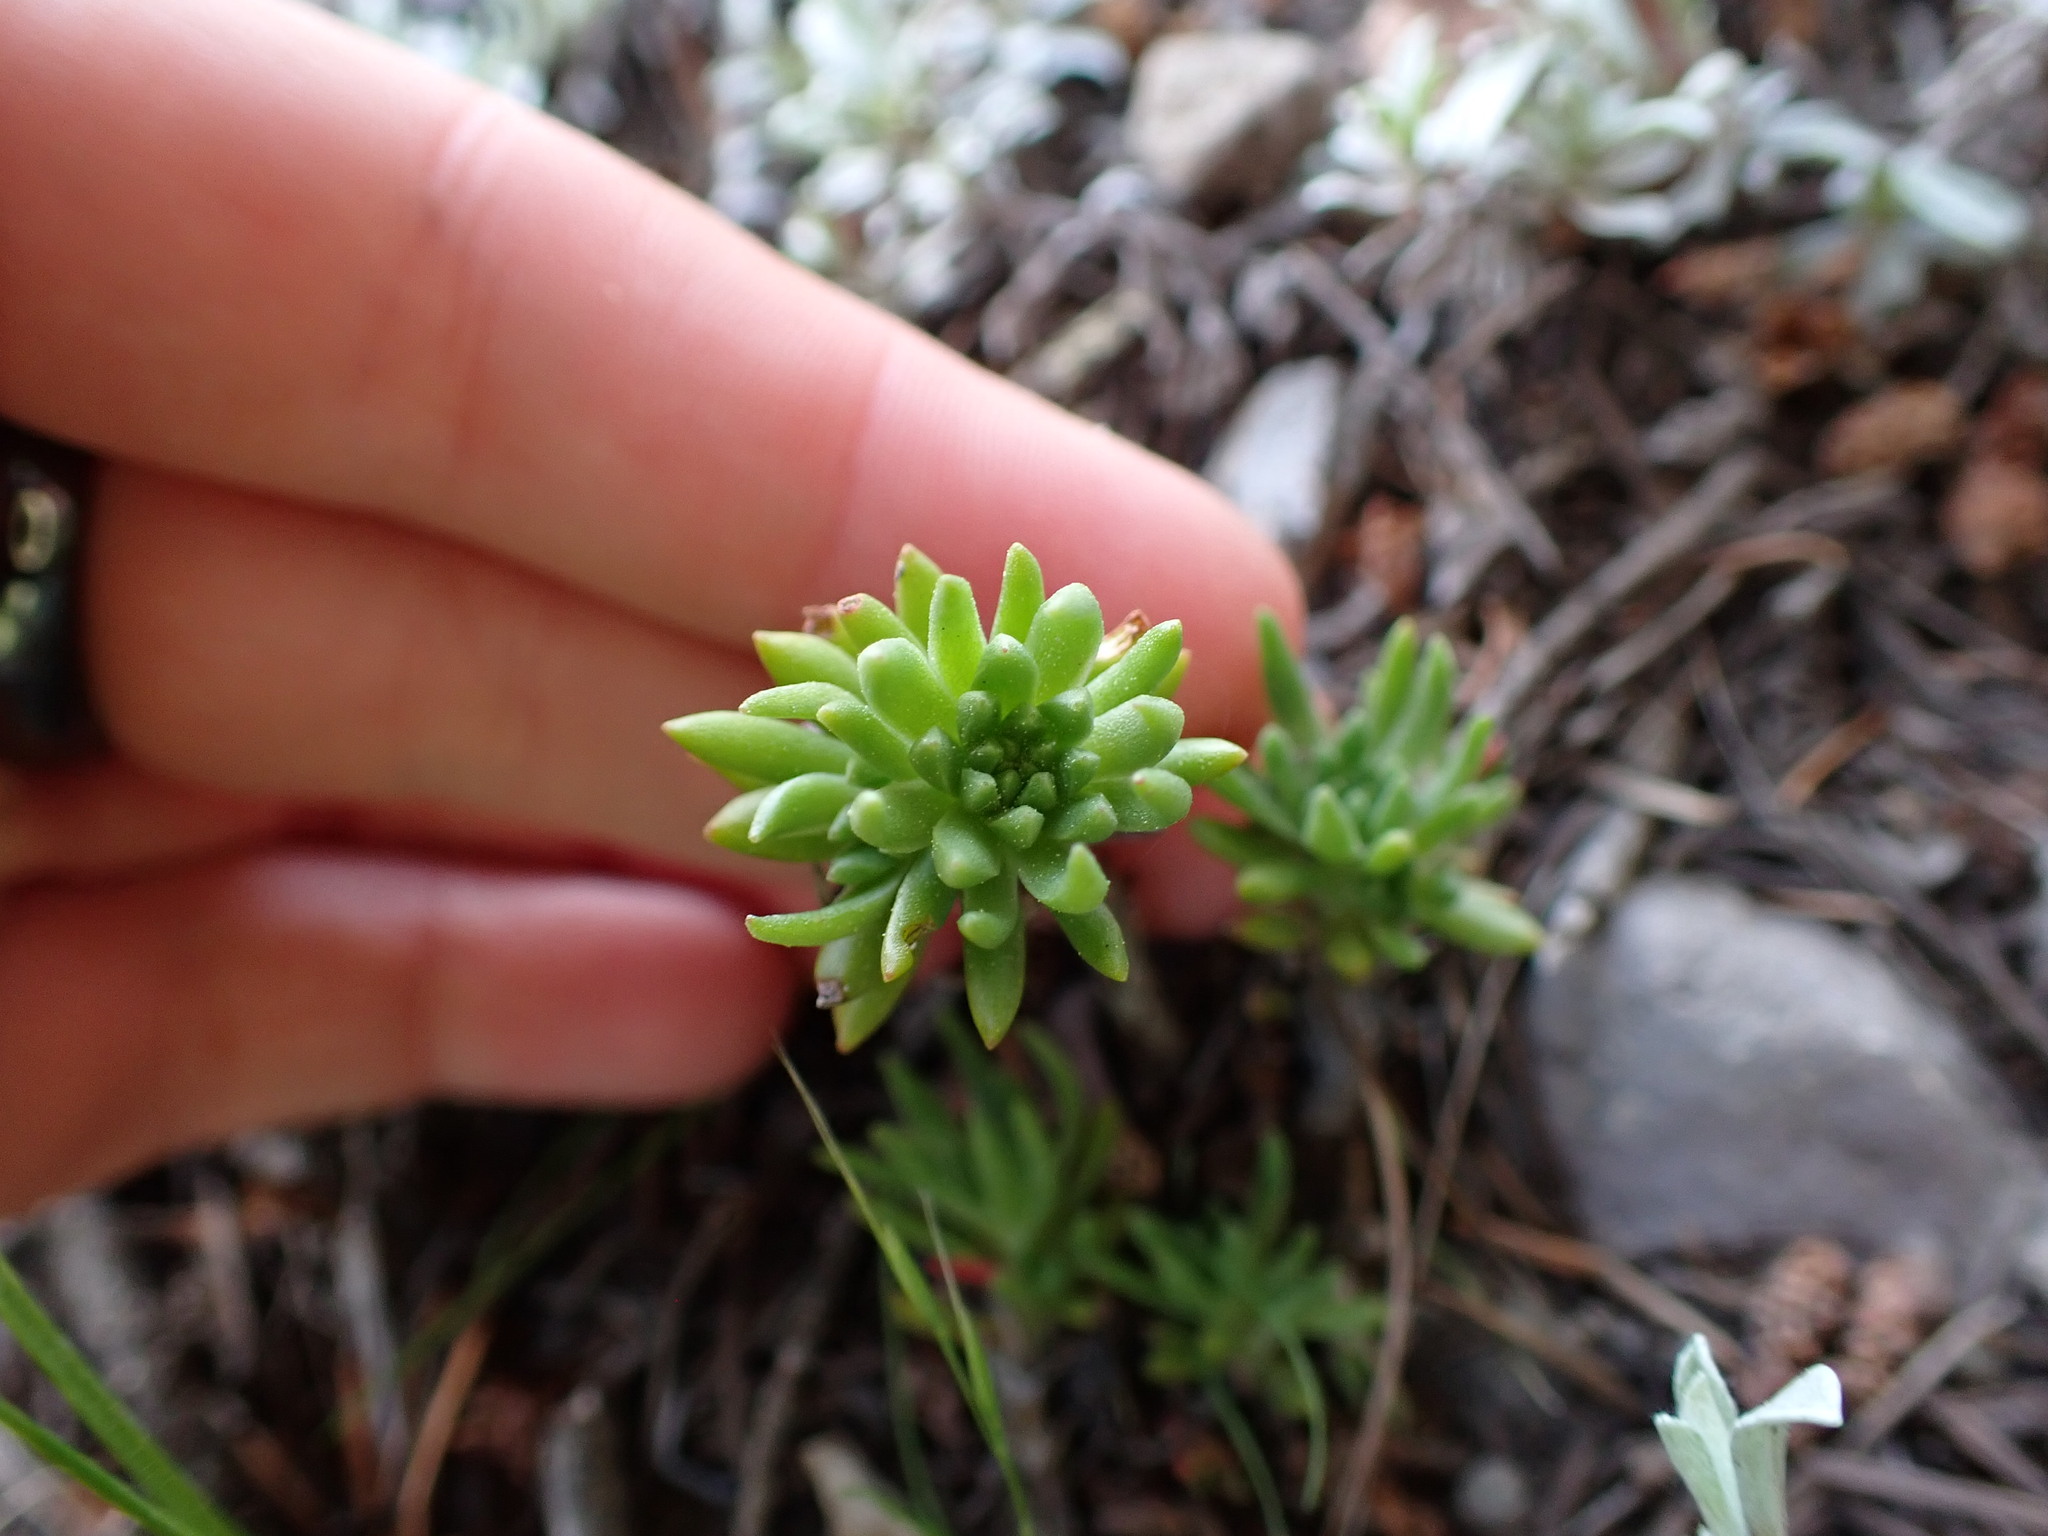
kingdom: Plantae
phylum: Tracheophyta
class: Magnoliopsida
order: Saxifragales
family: Crassulaceae
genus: Sedum
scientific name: Sedum stenopetalum
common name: Narrow-petaled stonecrop
